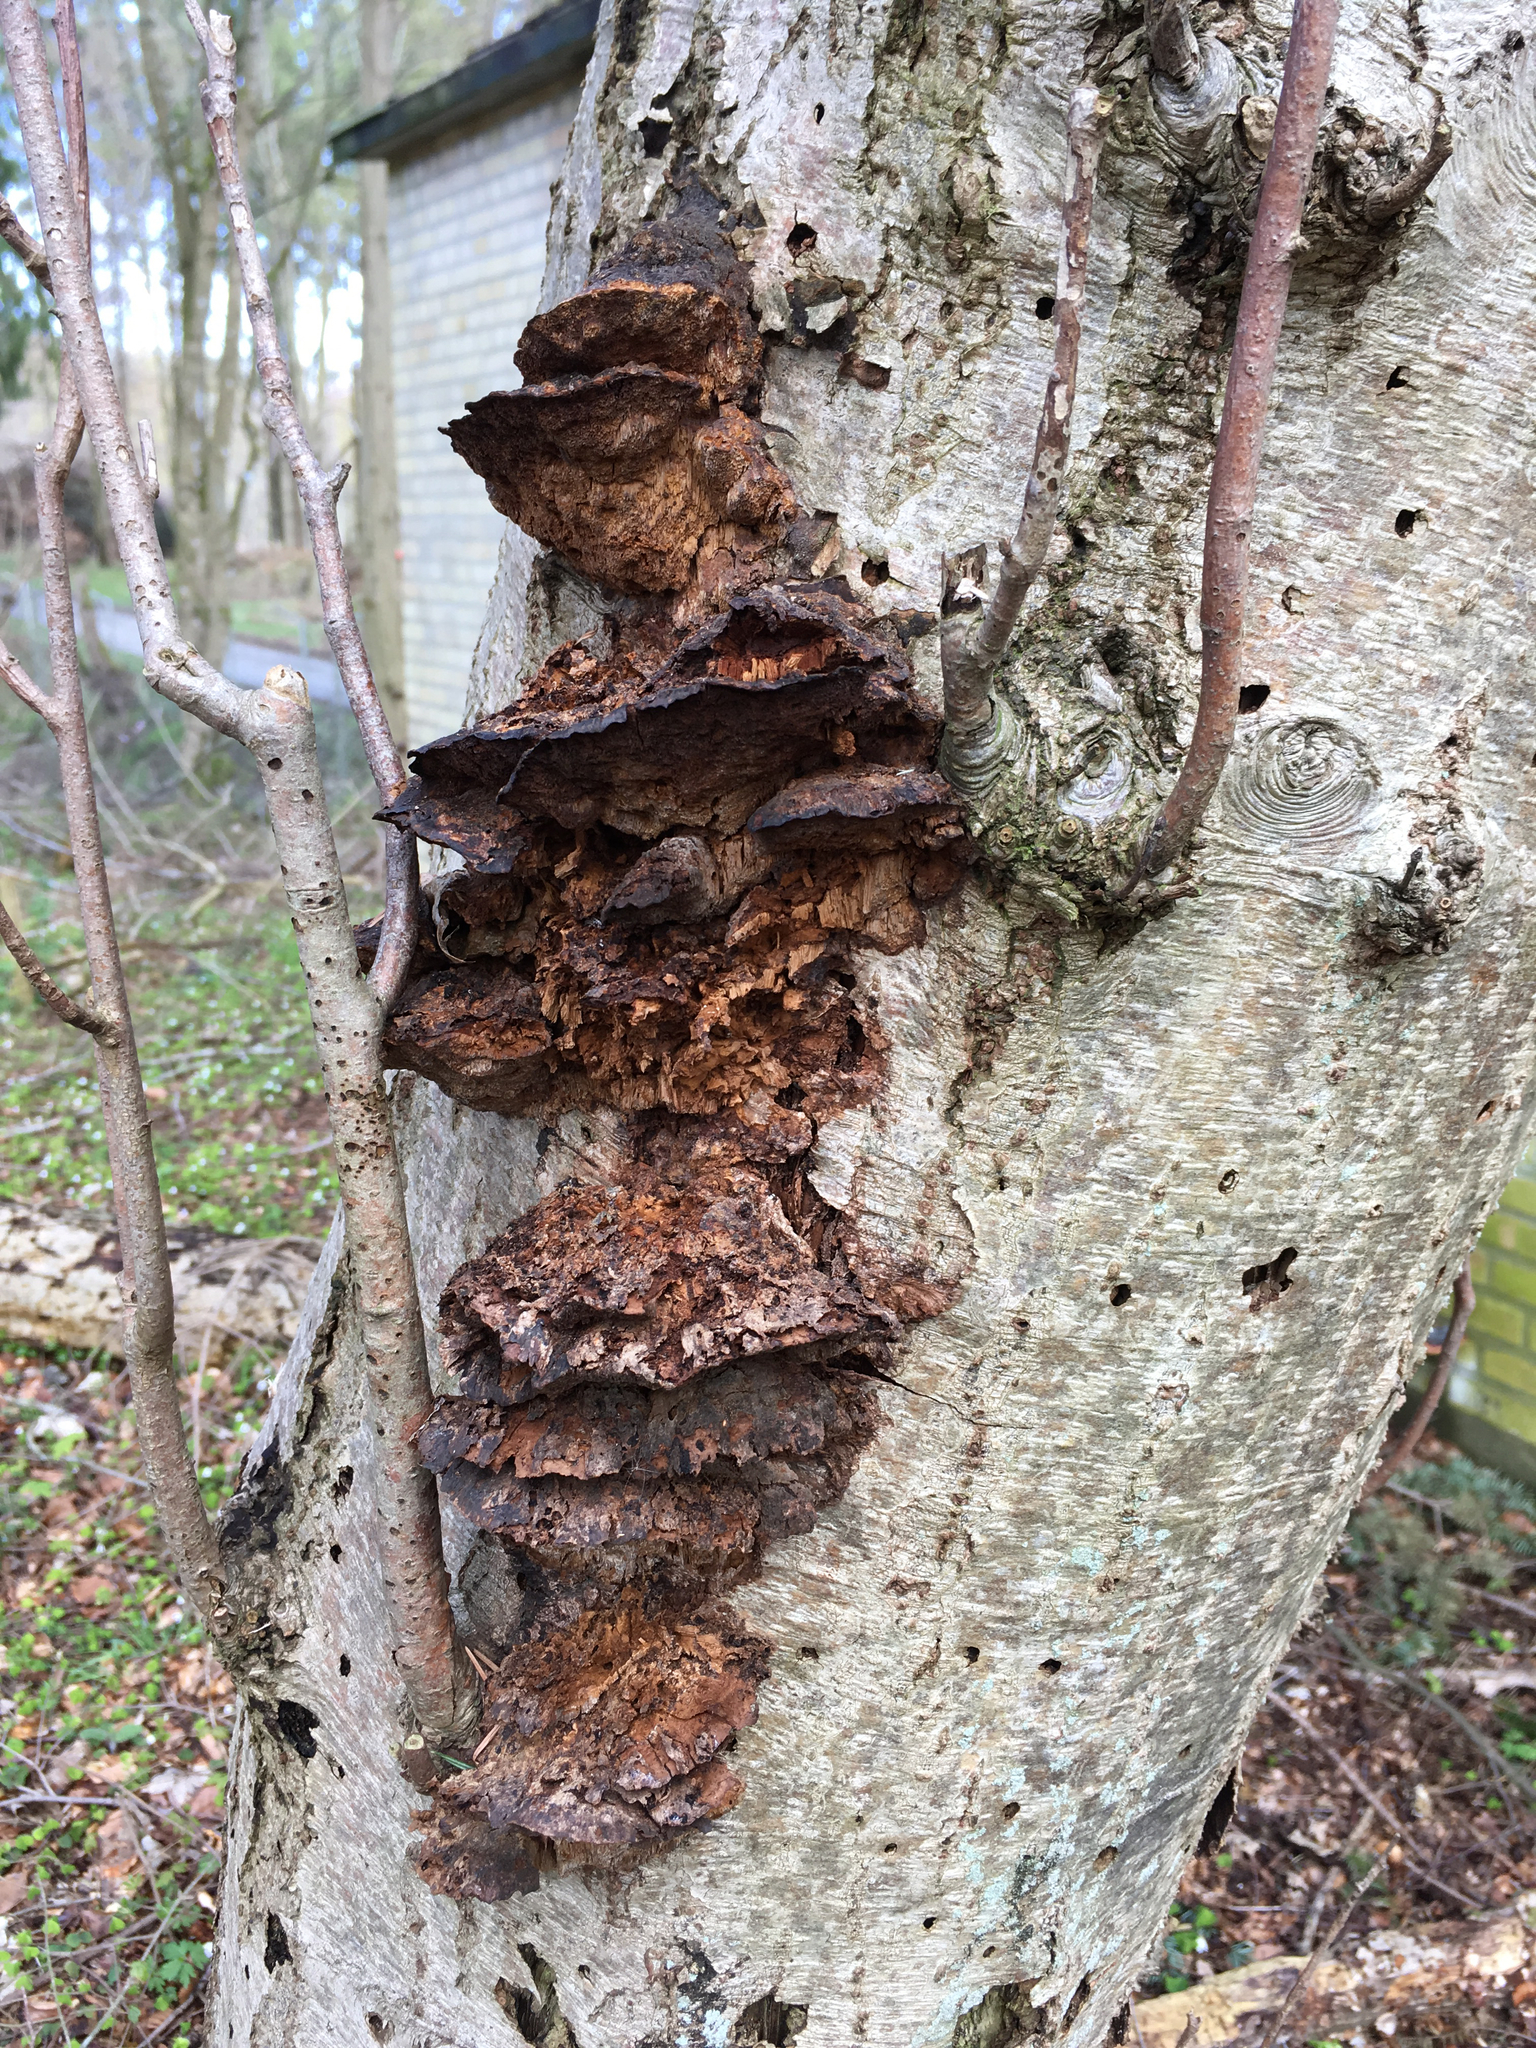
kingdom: Fungi
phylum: Basidiomycota
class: Agaricomycetes
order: Hymenochaetales
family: Hymenochaetaceae
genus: Xanthoporia
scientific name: Xanthoporia radiata
